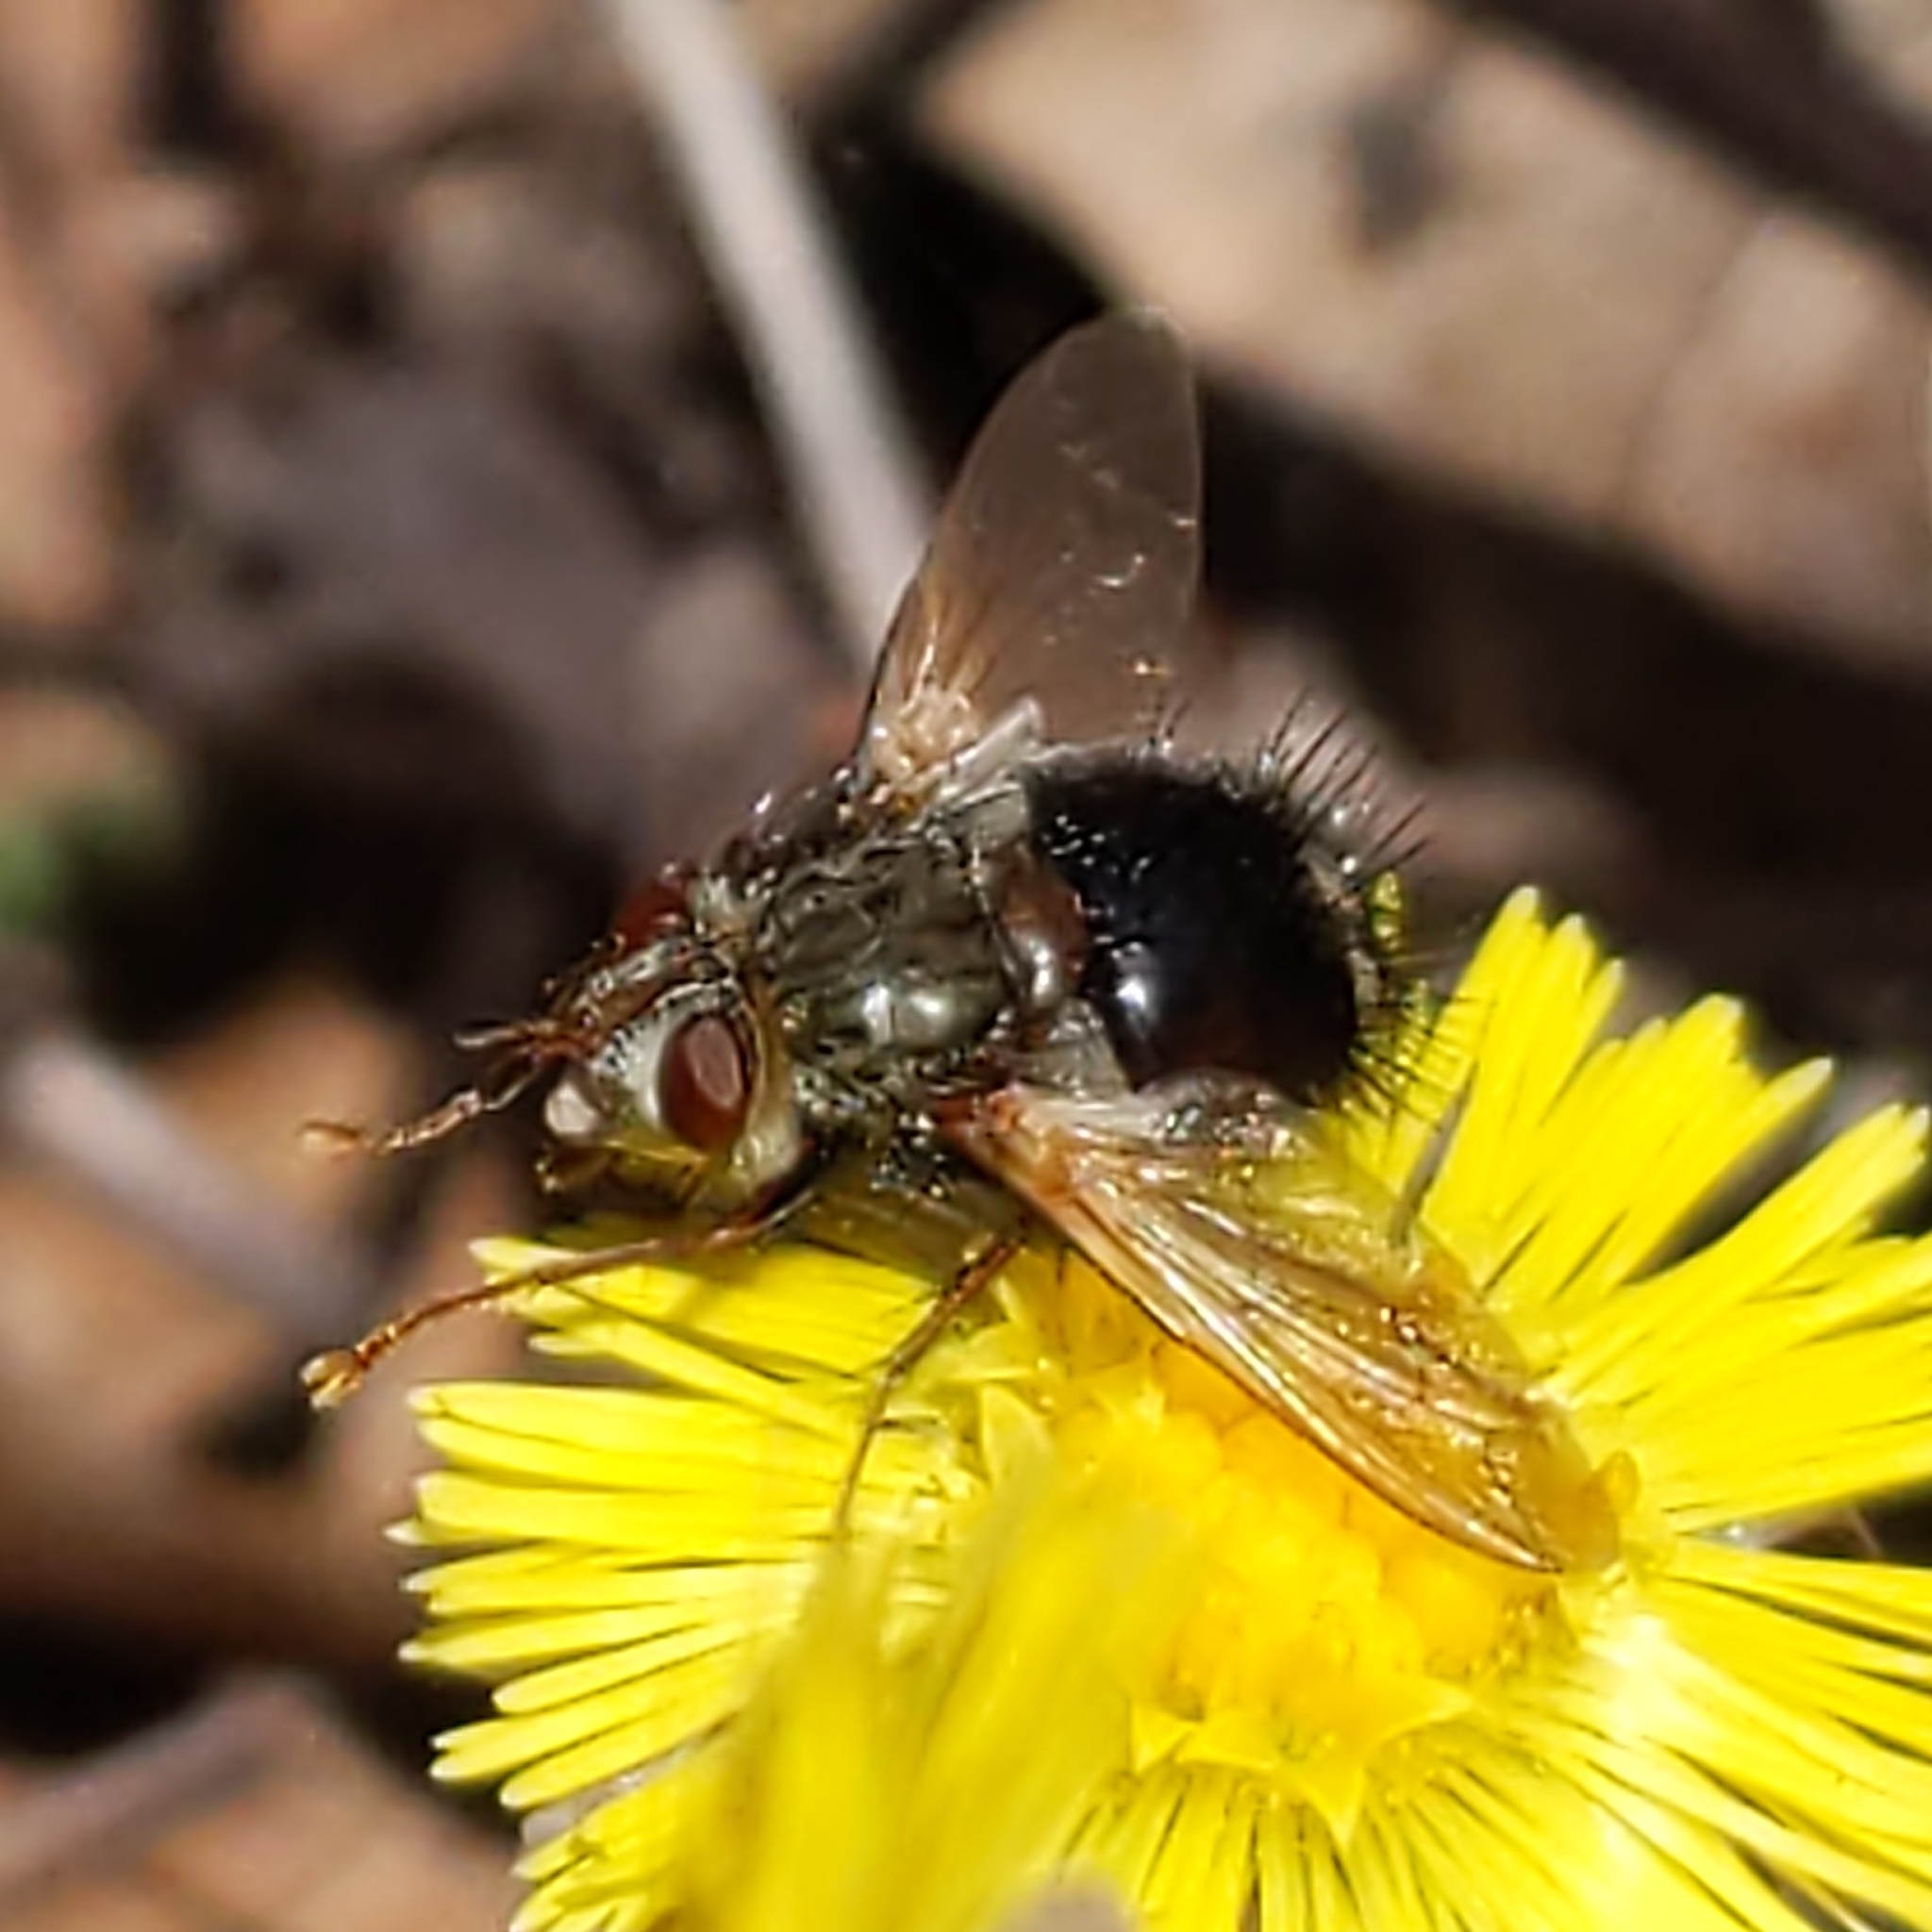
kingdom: Animalia
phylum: Arthropoda
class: Insecta
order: Diptera
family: Tachinidae
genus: Epalpus
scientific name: Epalpus signifer
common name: Early tachinid fly
